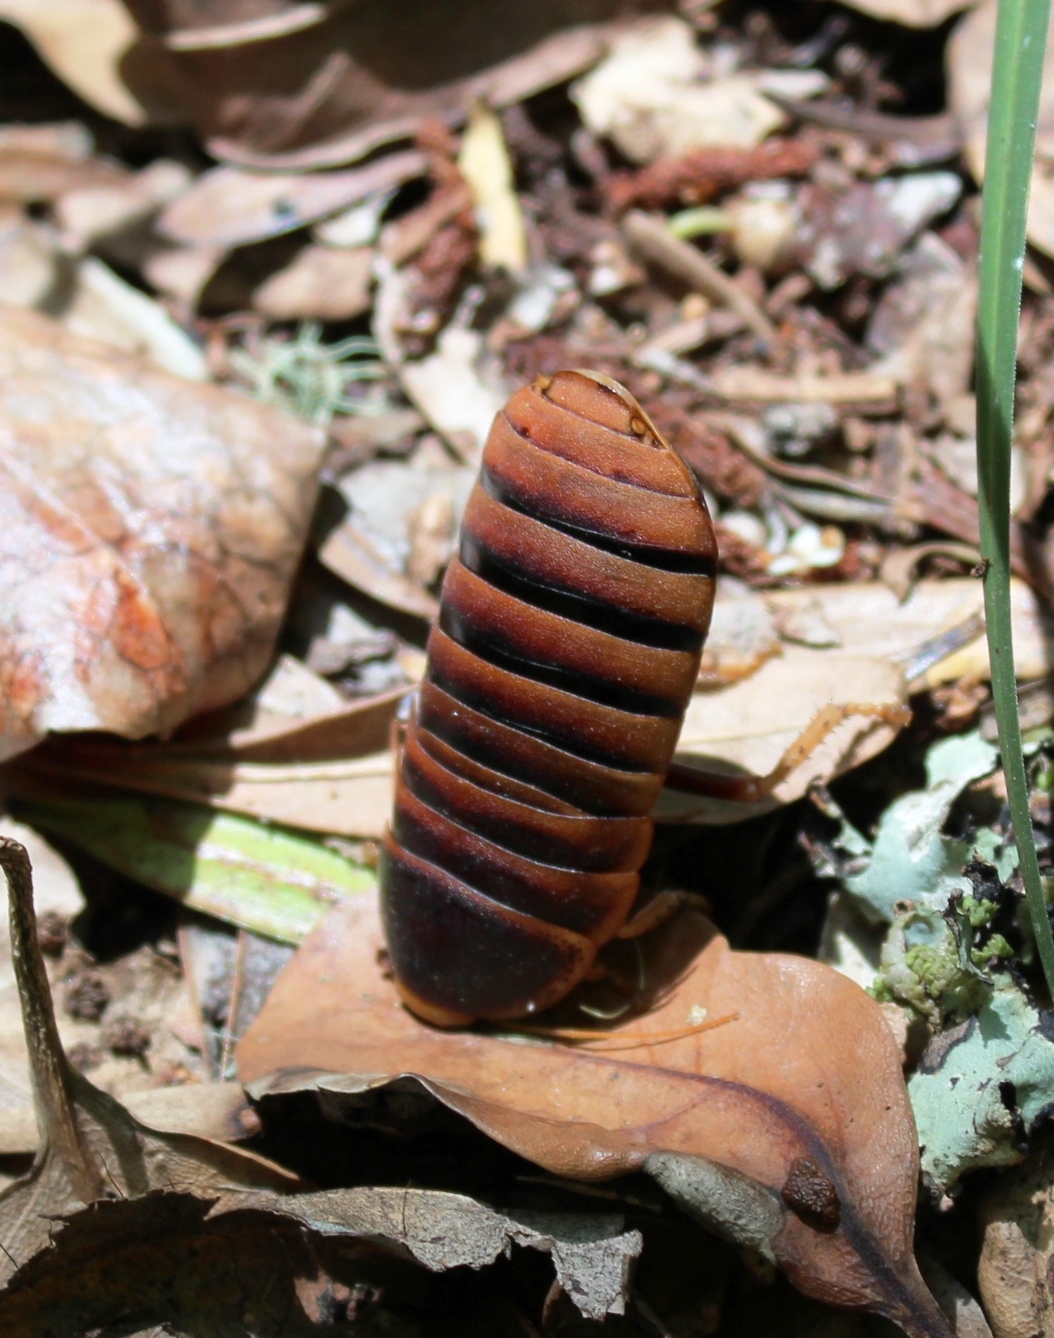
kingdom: Animalia
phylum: Arthropoda
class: Insecta
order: Blattodea
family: Blaberidae
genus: Aptera
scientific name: Aptera fusca
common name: Cape mountain cockroach
